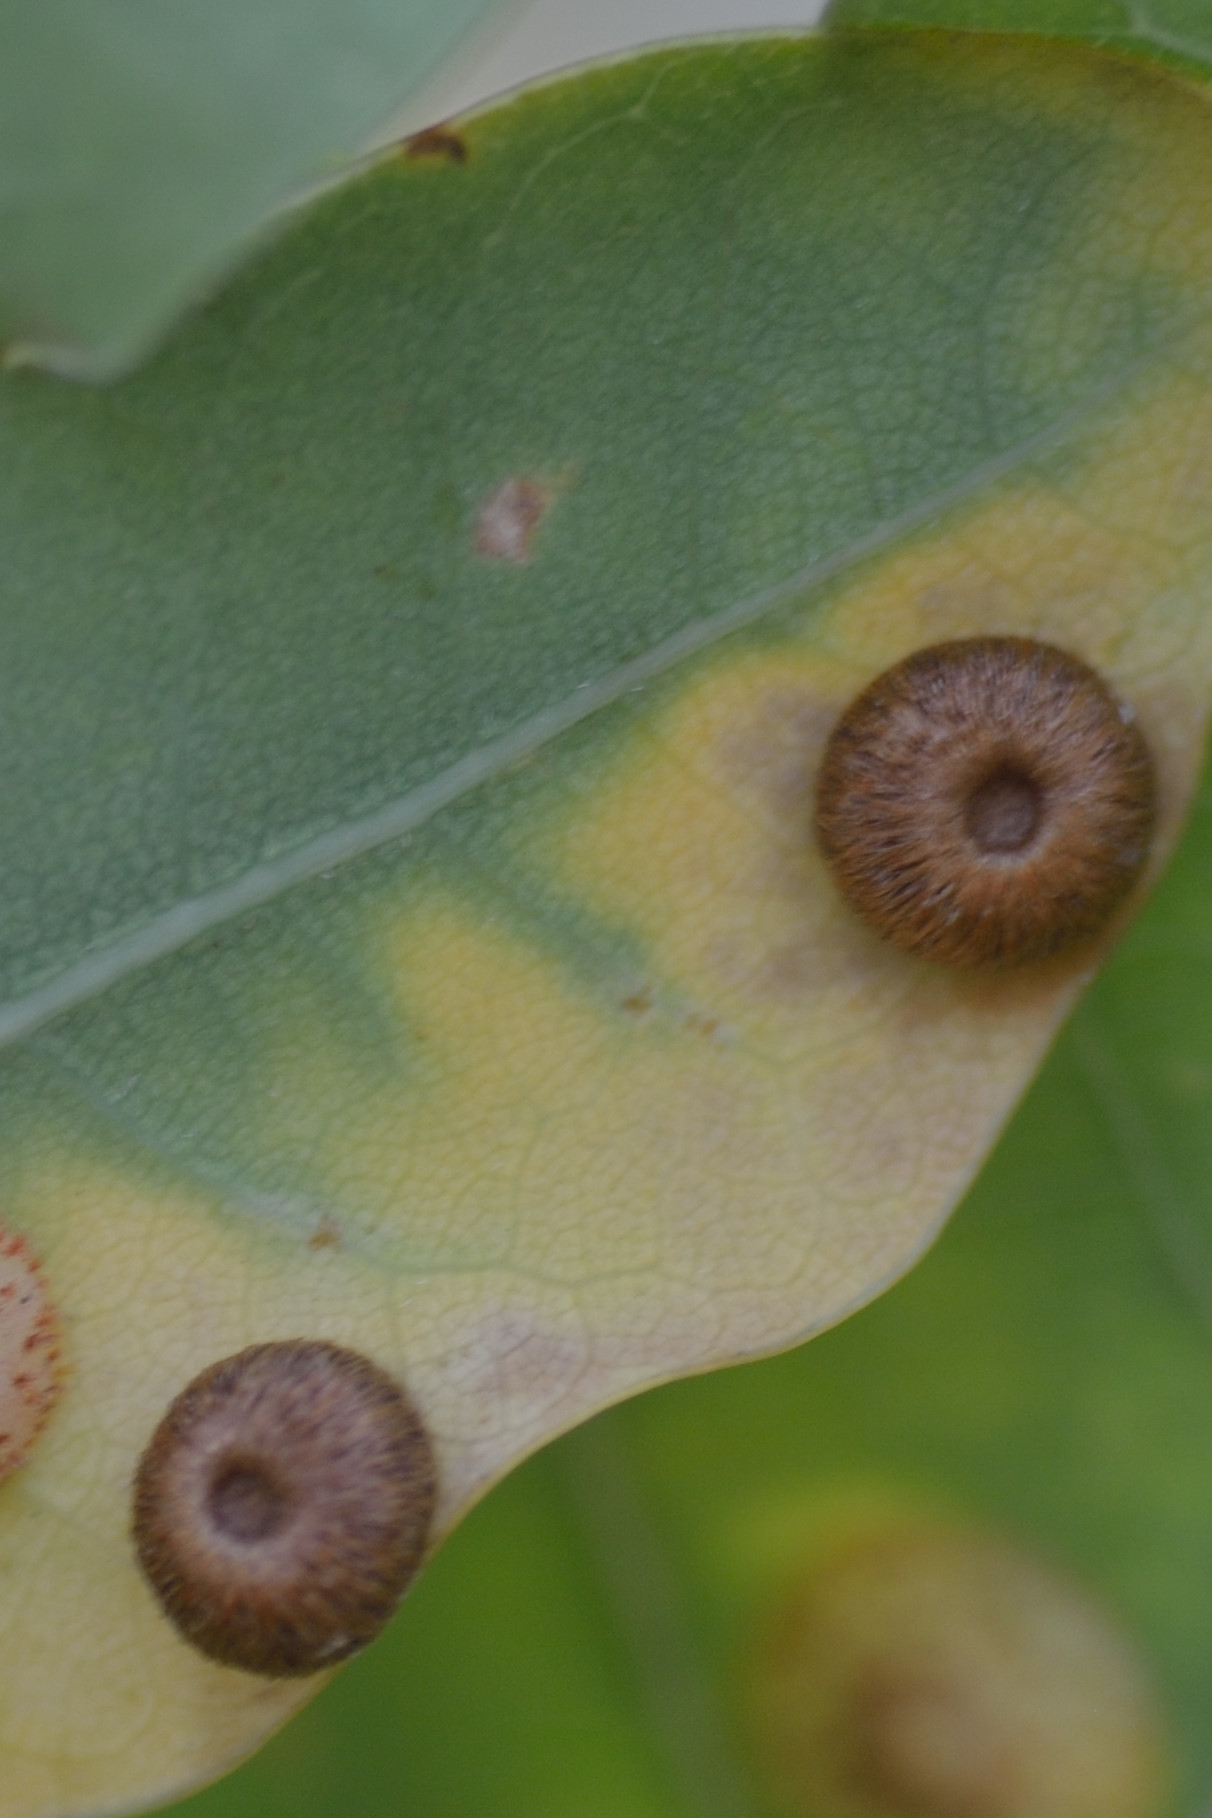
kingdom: Animalia
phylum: Arthropoda
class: Insecta
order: Hymenoptera
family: Cynipidae
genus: Neuroterus
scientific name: Neuroterus numismalis
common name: Silk-button spangle gall
